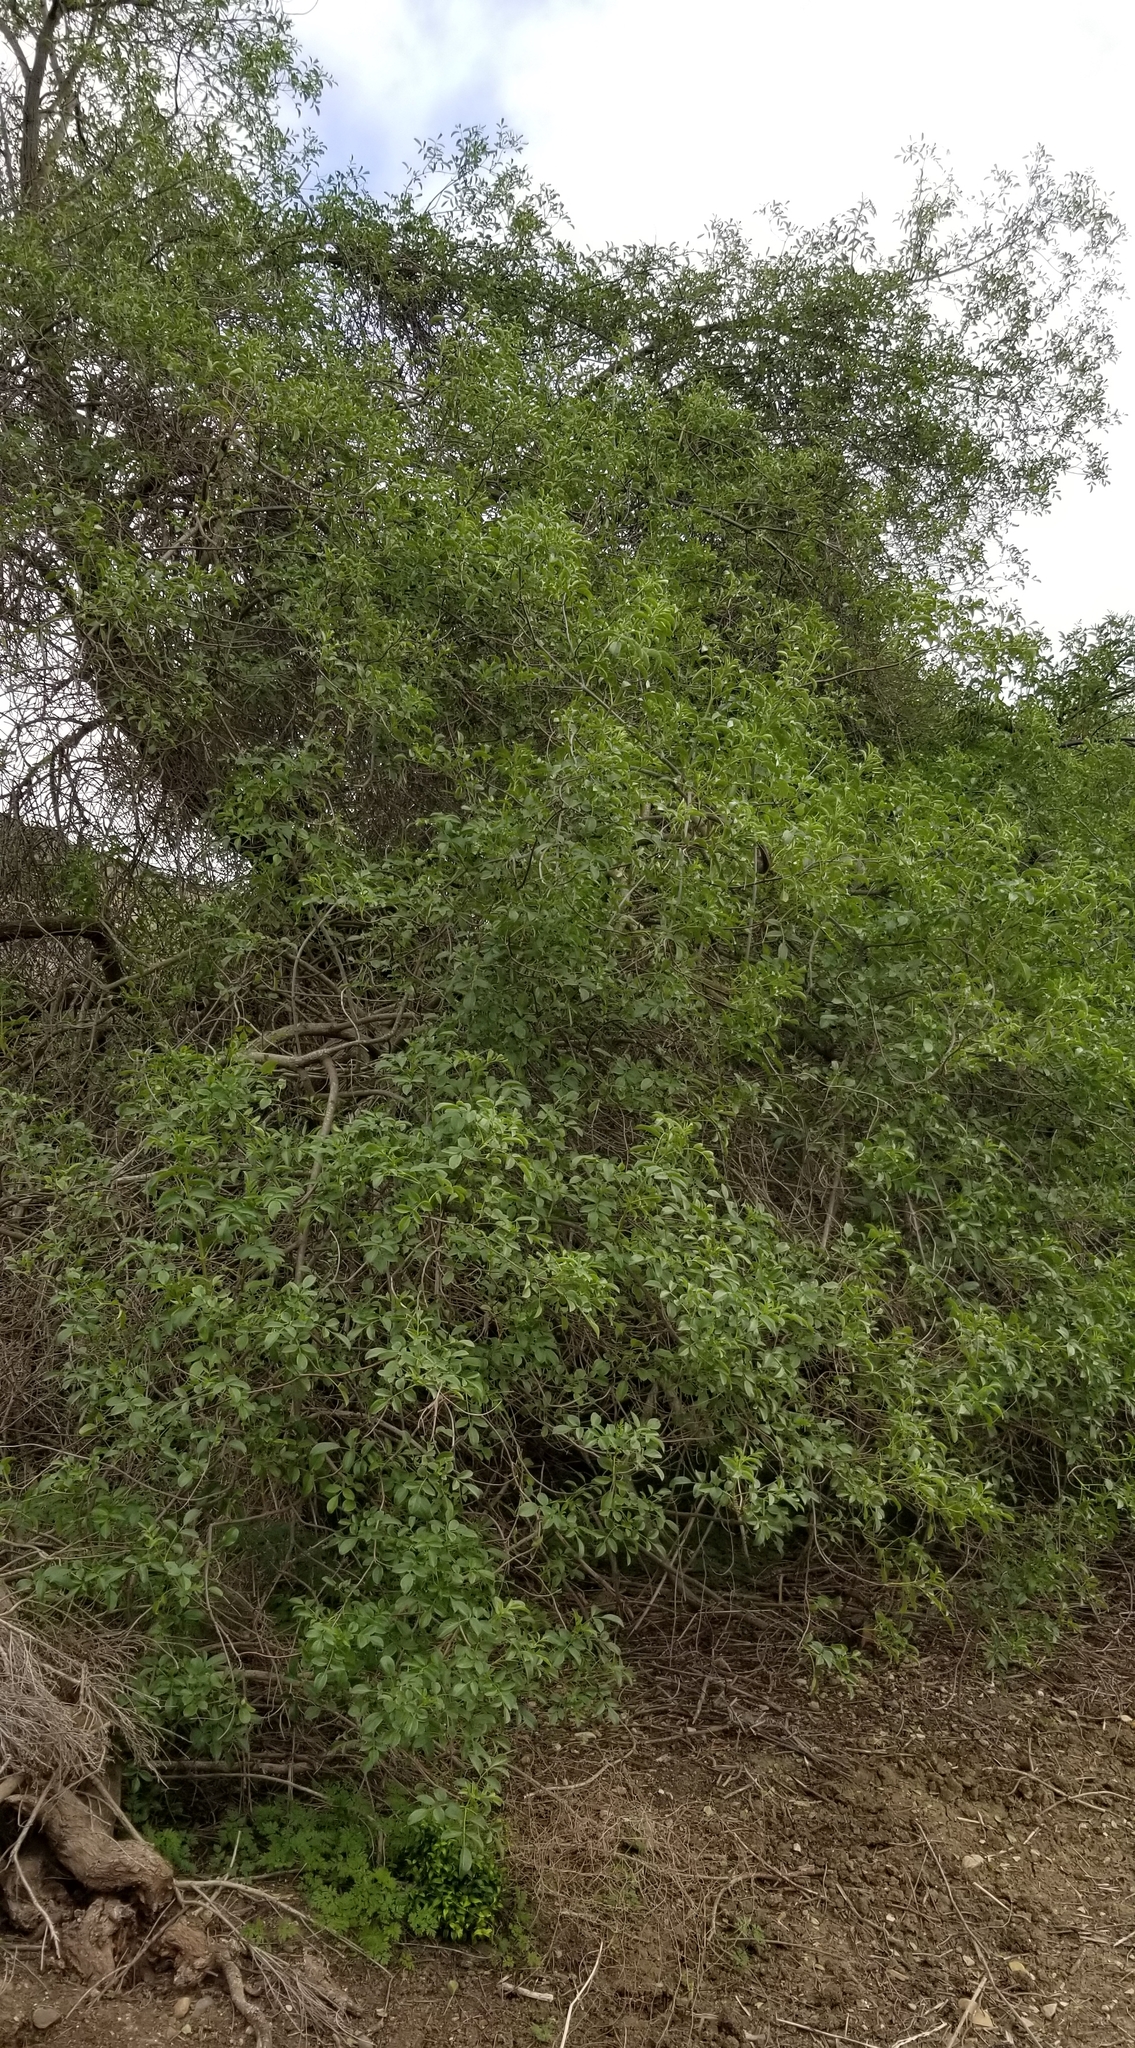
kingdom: Plantae
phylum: Tracheophyta
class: Magnoliopsida
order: Dipsacales
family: Viburnaceae
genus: Sambucus
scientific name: Sambucus cerulea
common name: Blue elder
